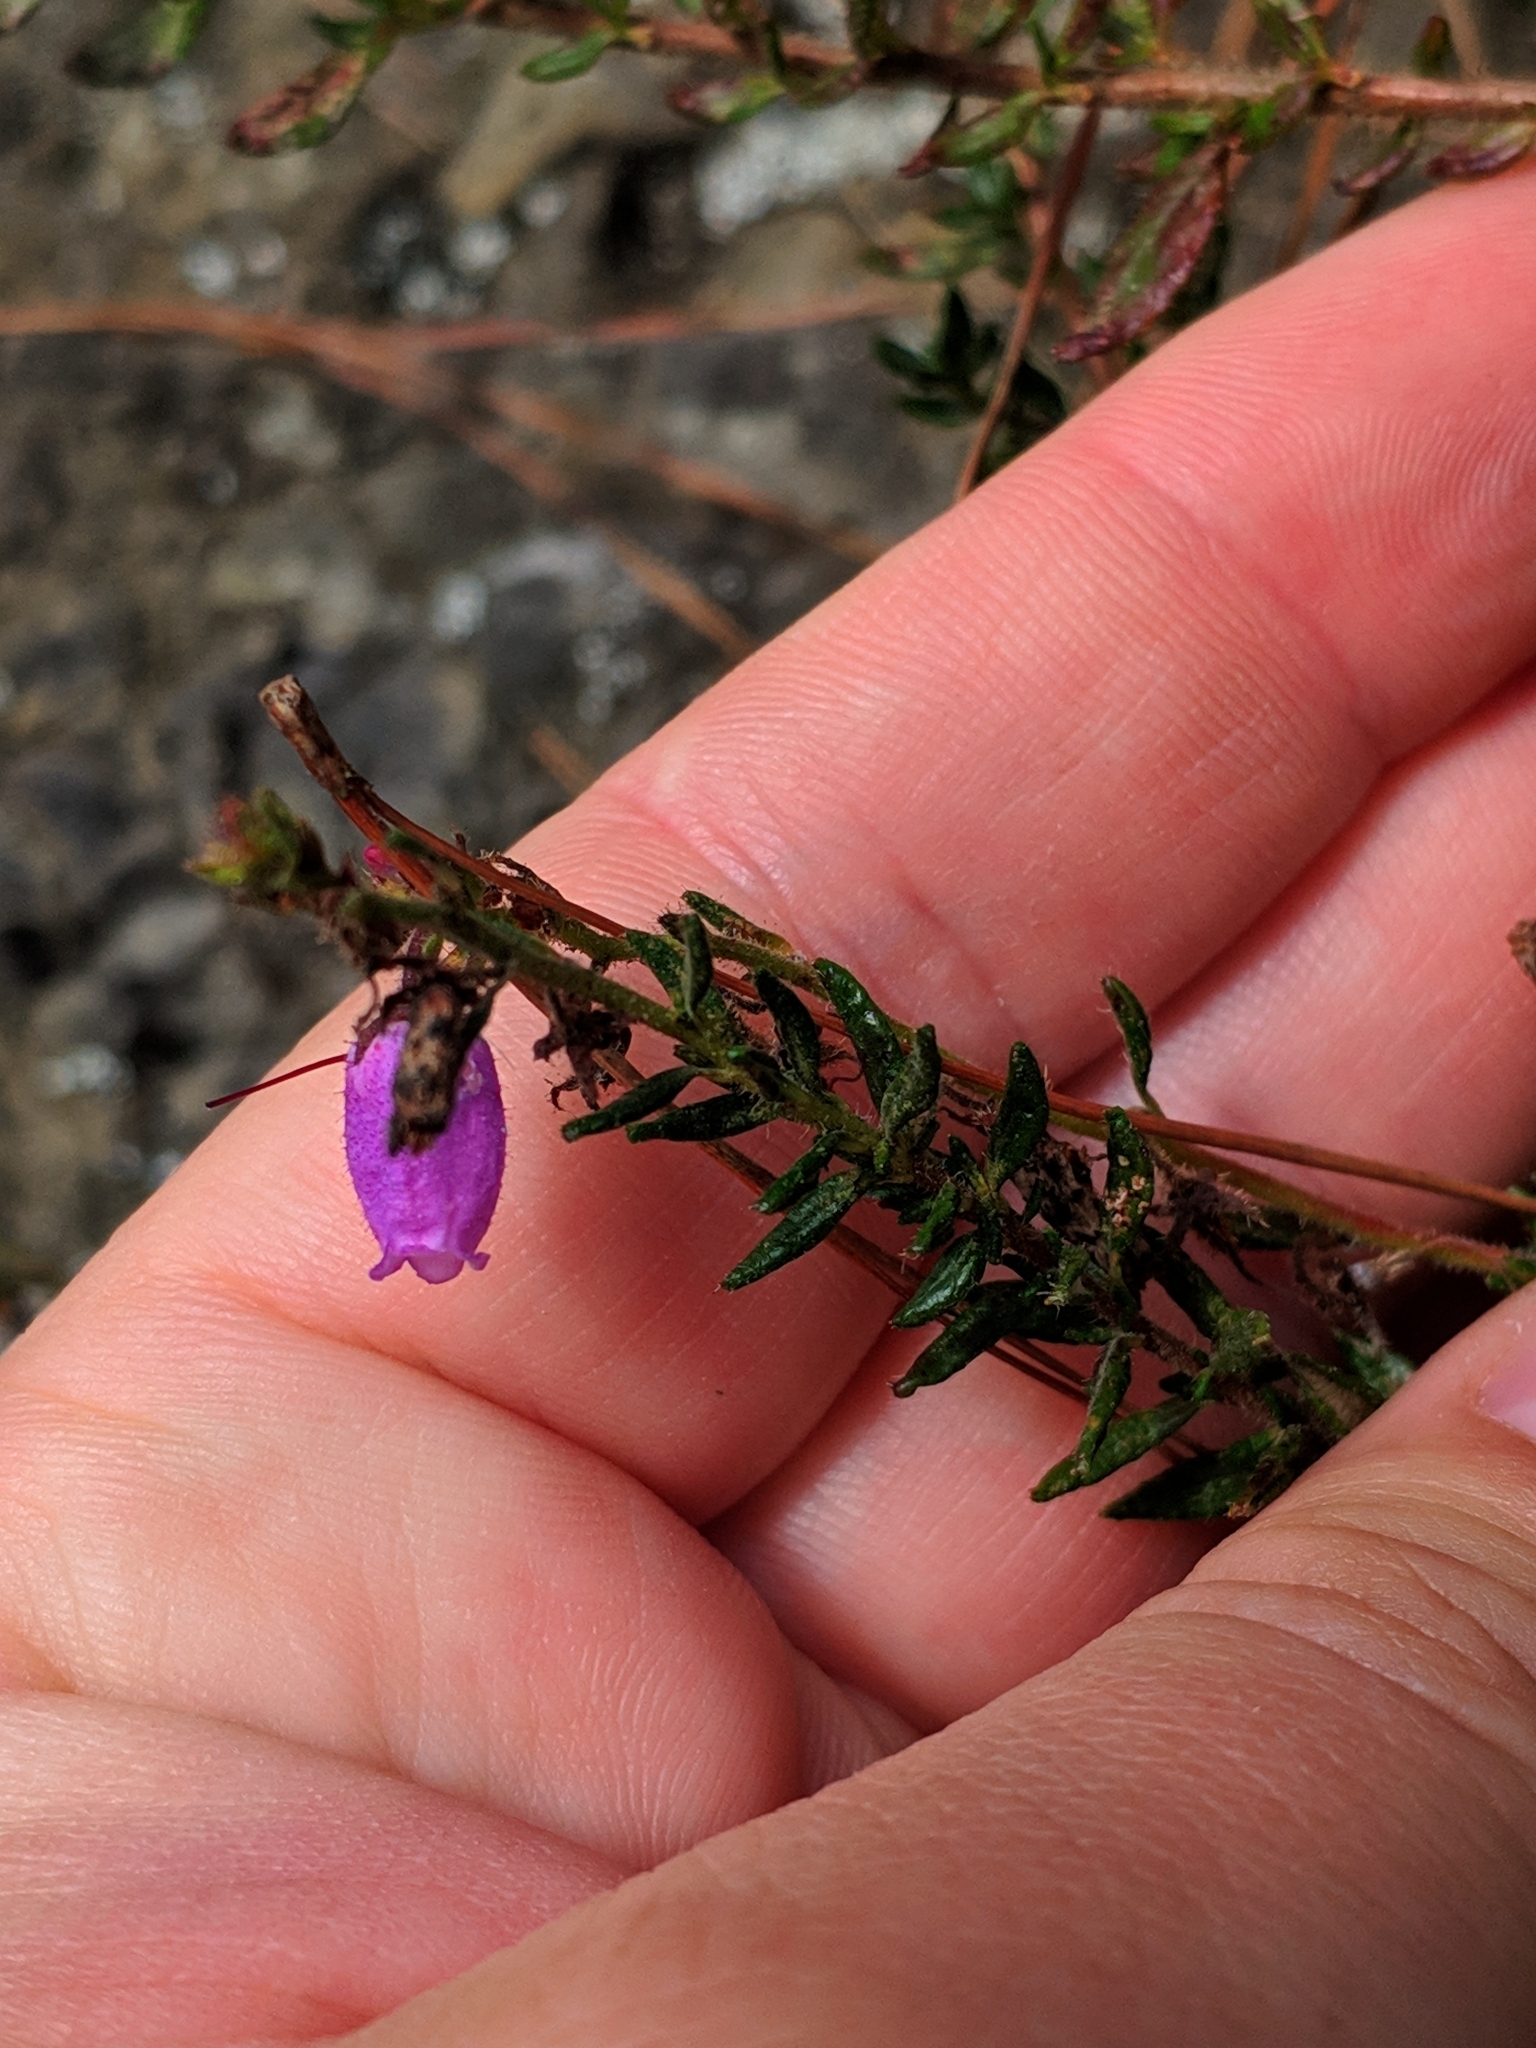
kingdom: Plantae
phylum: Tracheophyta
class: Magnoliopsida
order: Ericales
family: Ericaceae
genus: Daboecia
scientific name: Daboecia cantabrica
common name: St. dabeoc's-heath
